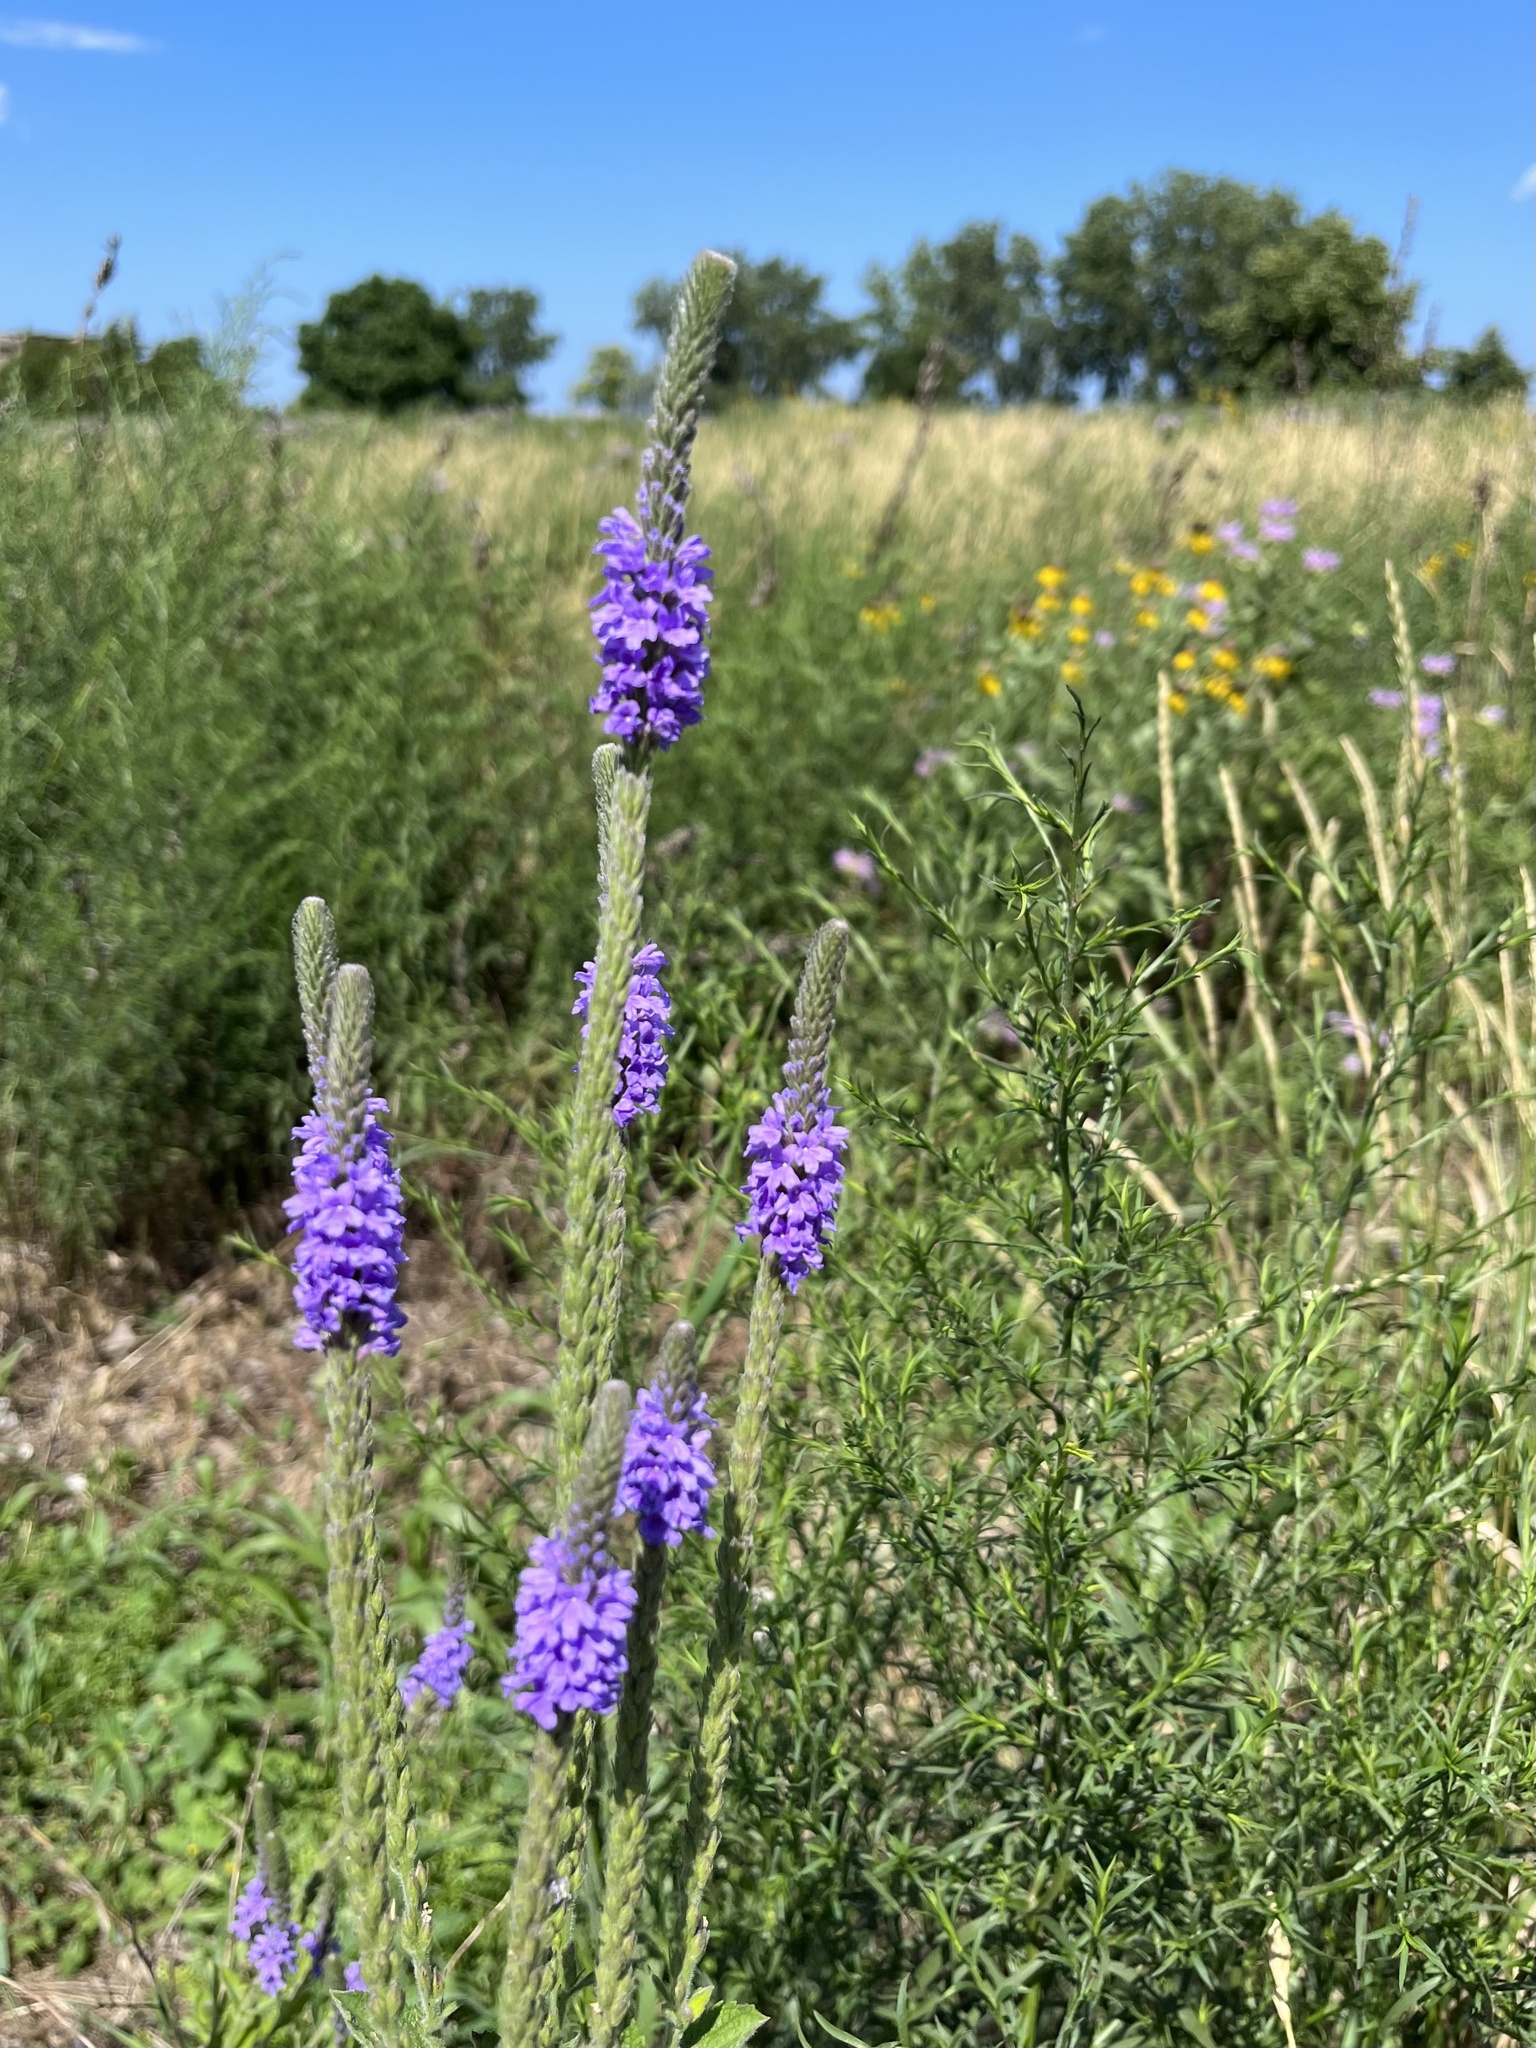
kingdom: Plantae
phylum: Tracheophyta
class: Magnoliopsida
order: Lamiales
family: Verbenaceae
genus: Verbena
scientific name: Verbena stricta
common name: Hoary vervain
